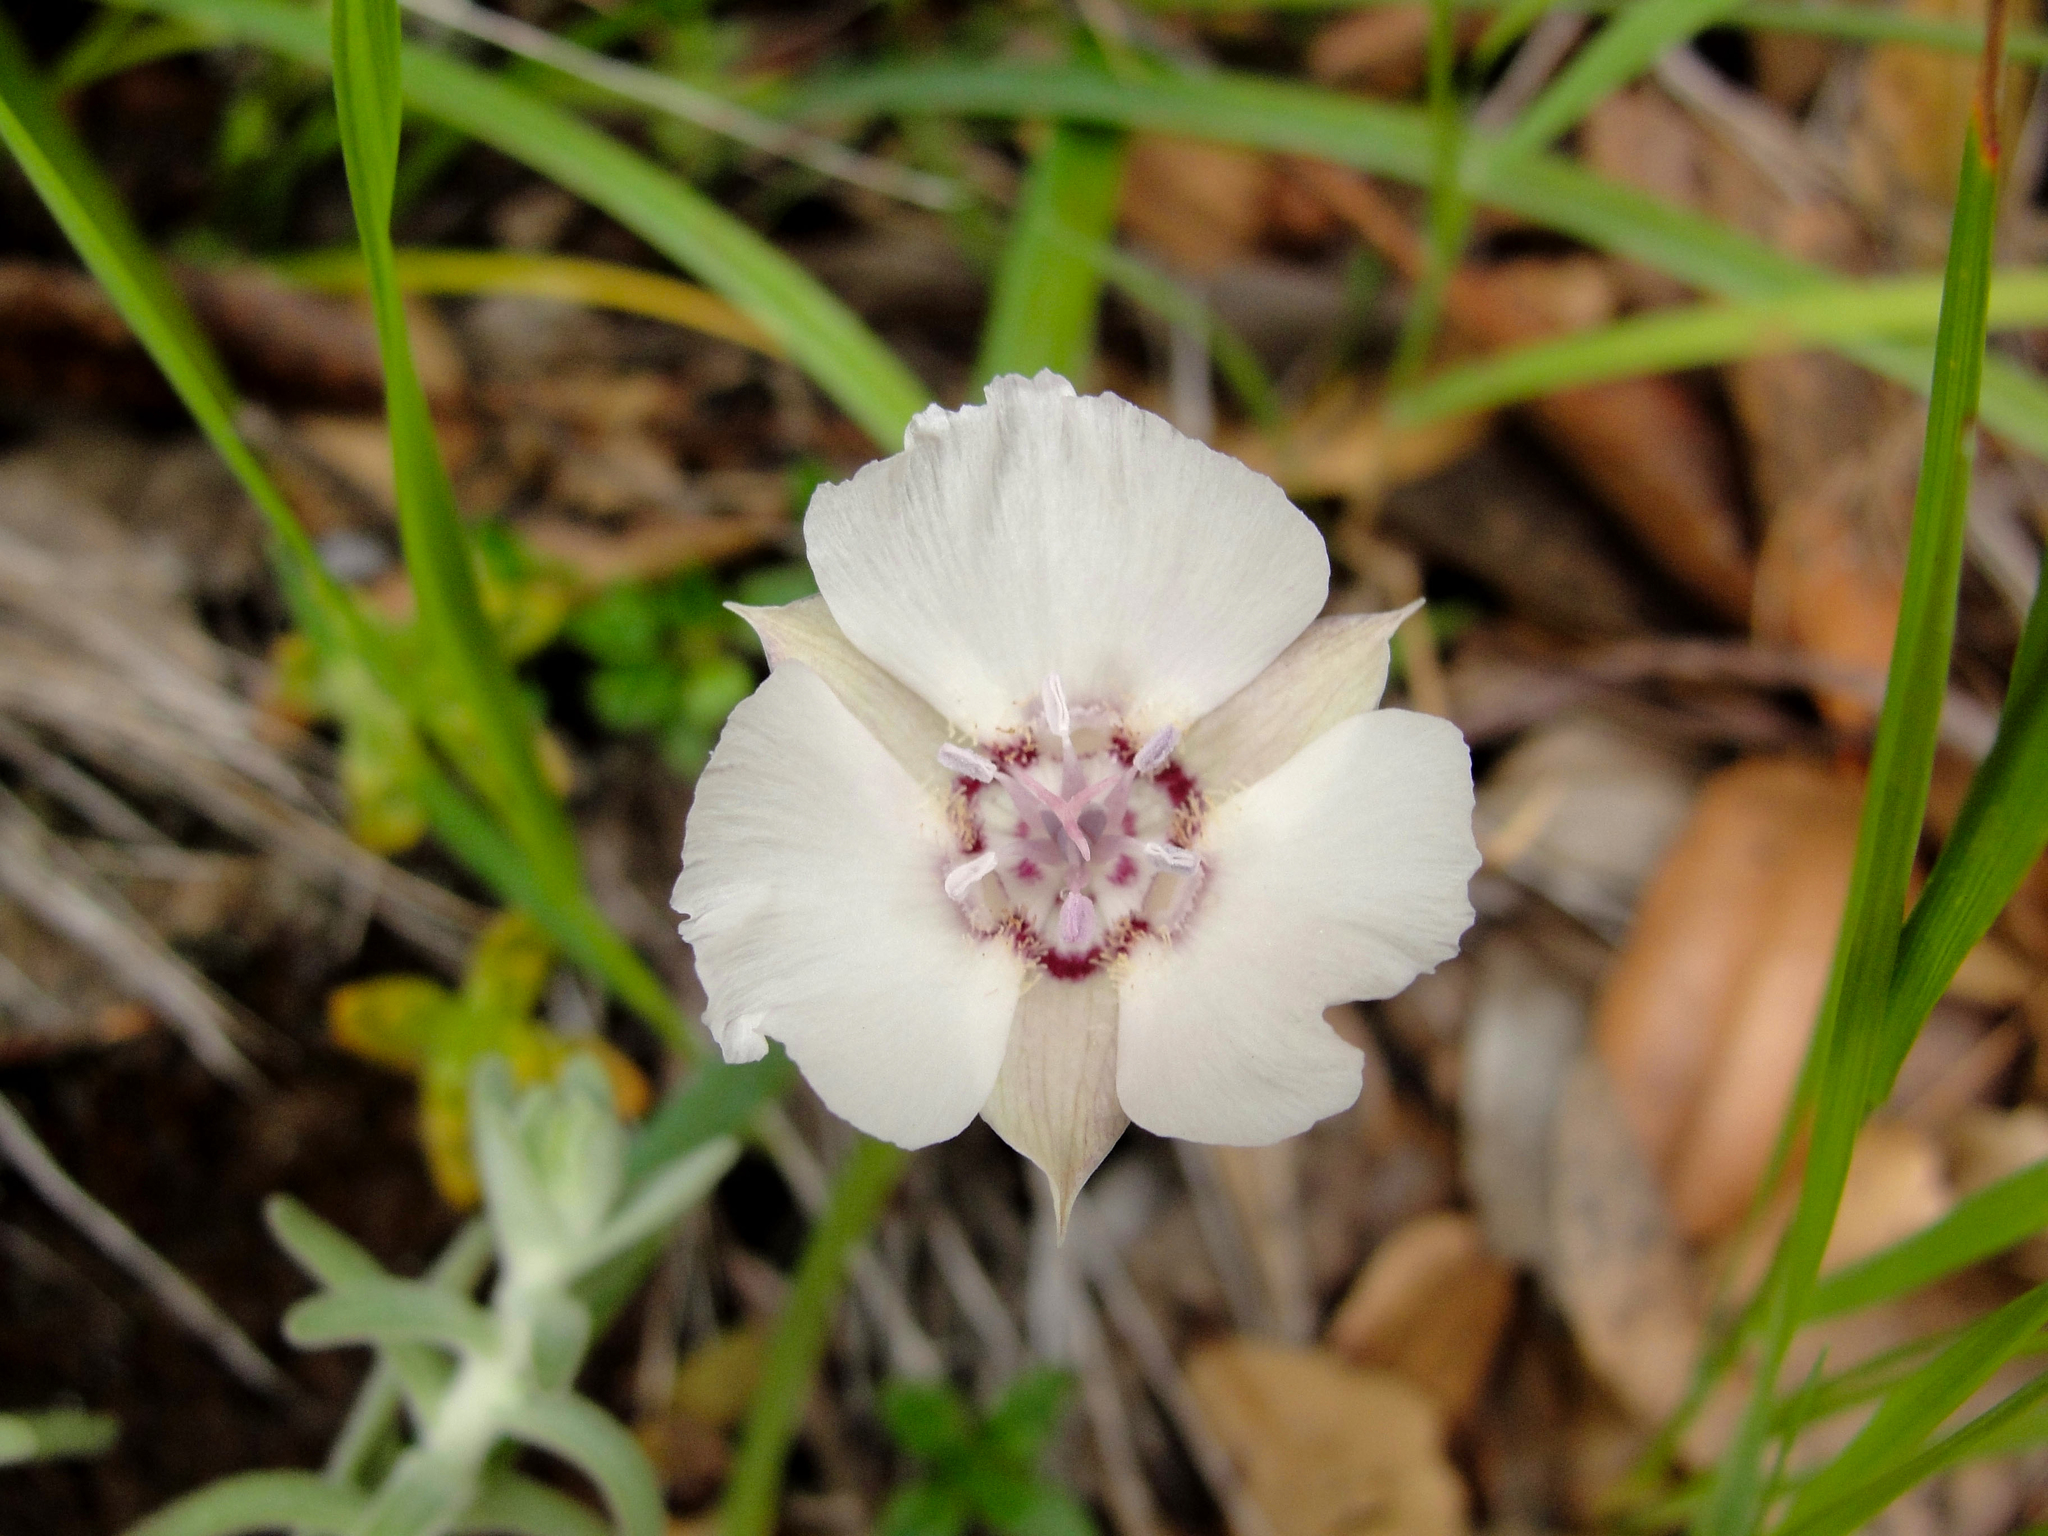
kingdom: Plantae
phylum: Tracheophyta
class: Liliopsida
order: Liliales
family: Liliaceae
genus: Calochortus
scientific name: Calochortus umbellatus
